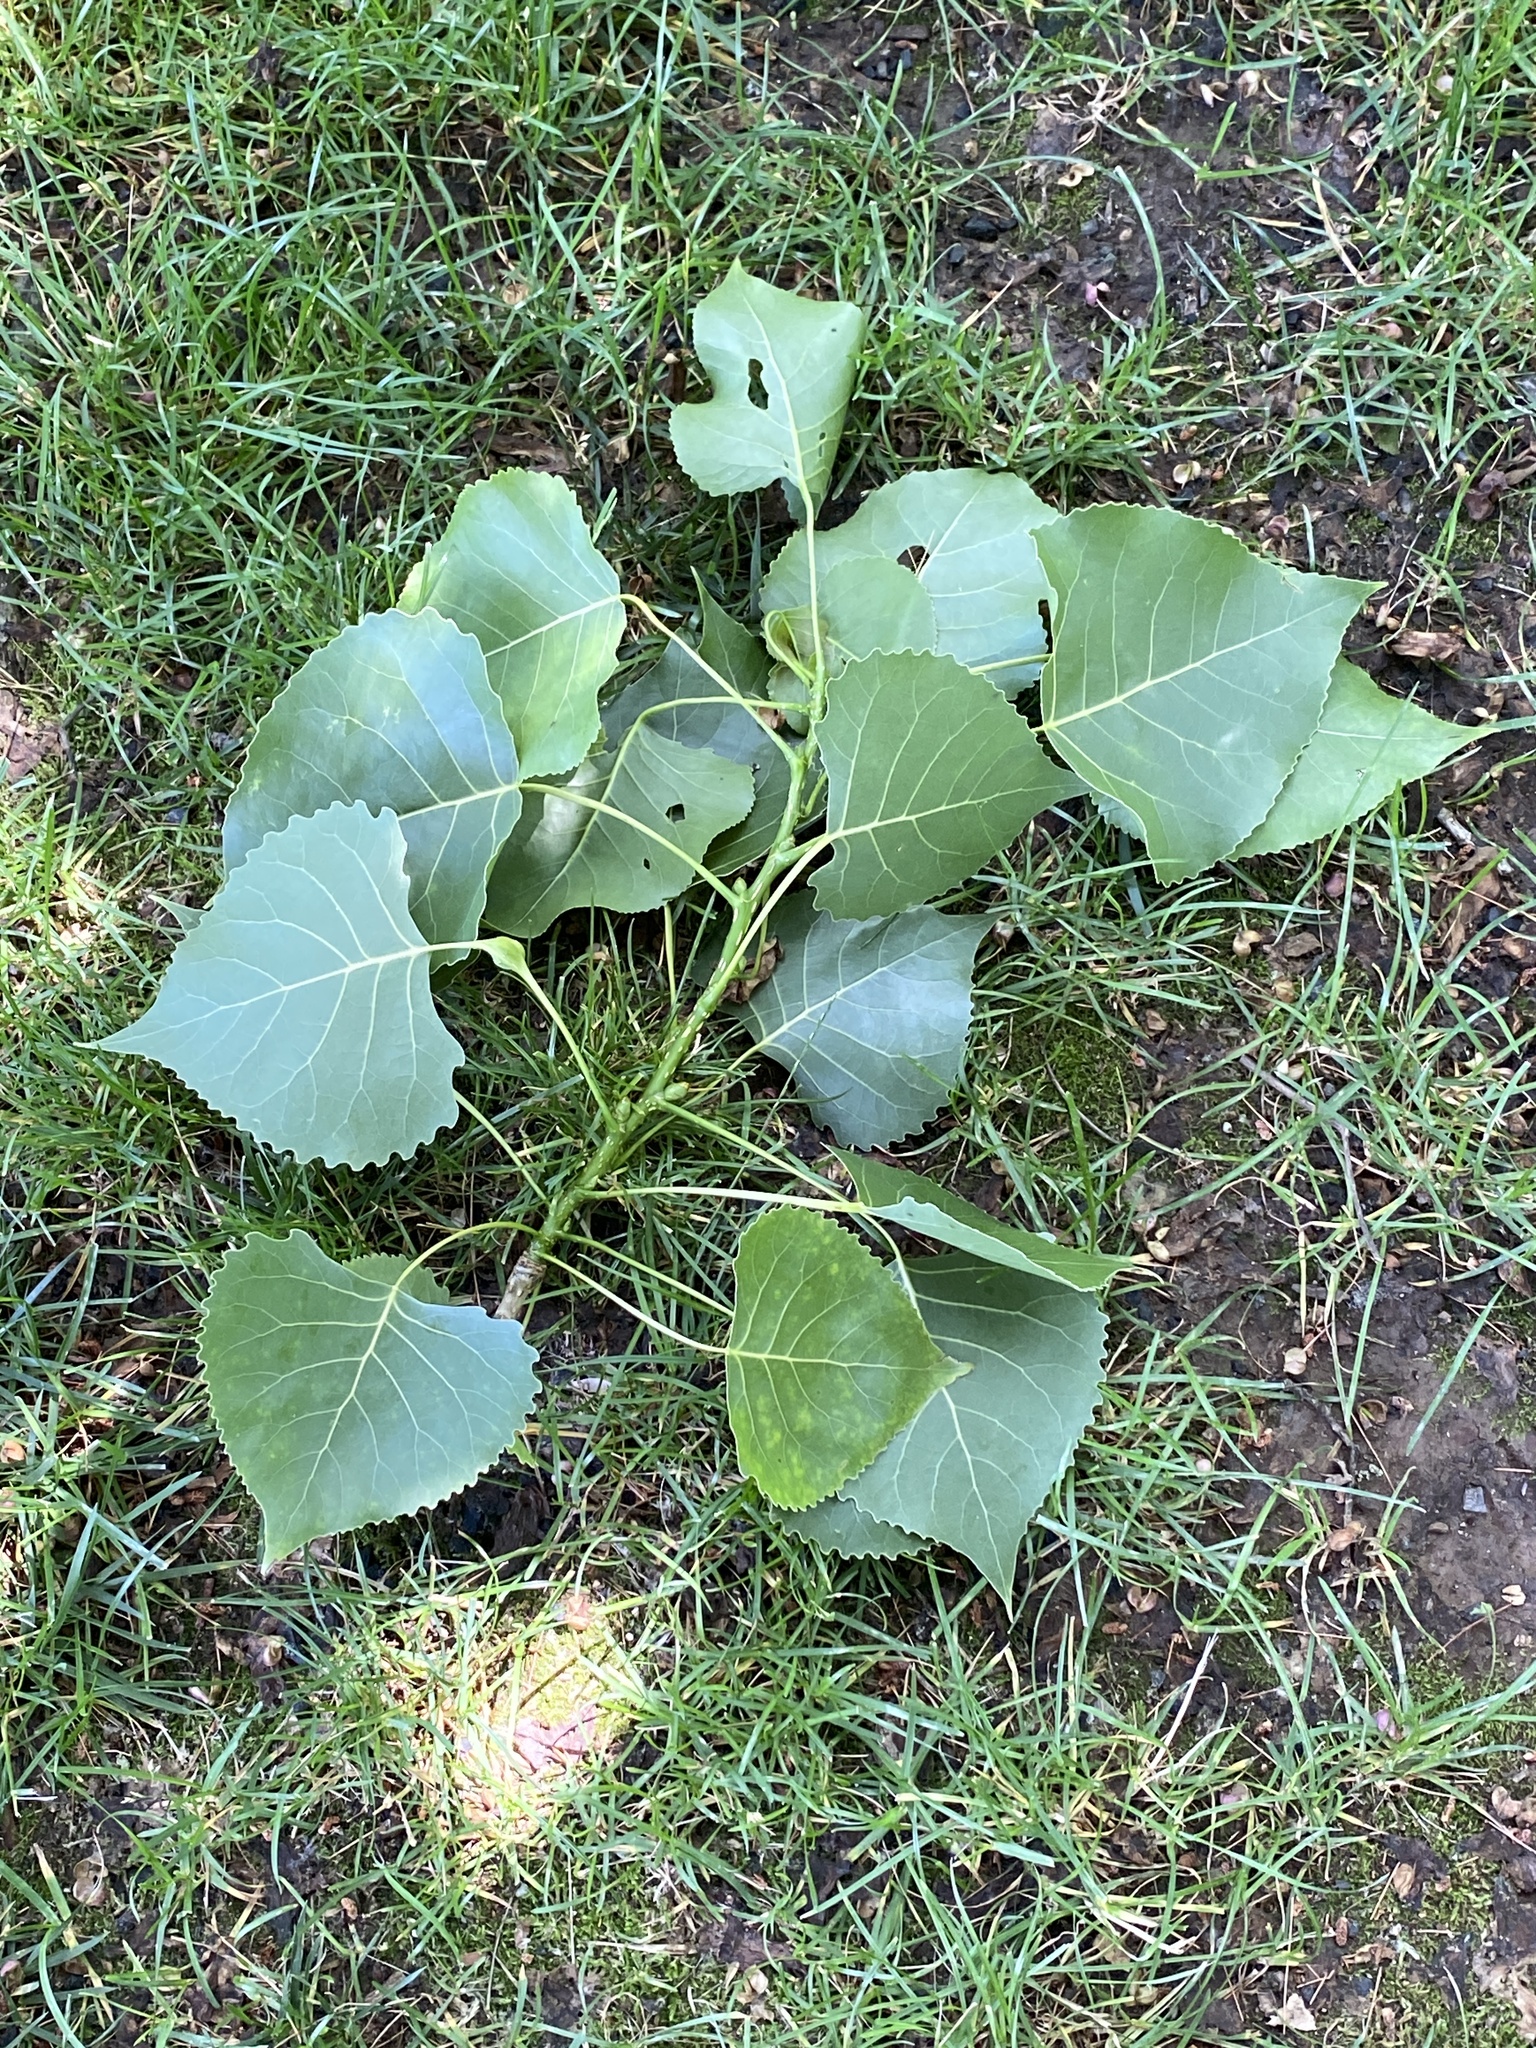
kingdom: Plantae
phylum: Tracheophyta
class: Magnoliopsida
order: Malpighiales
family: Salicaceae
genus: Populus
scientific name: Populus deltoides
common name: Eastern cottonwood
